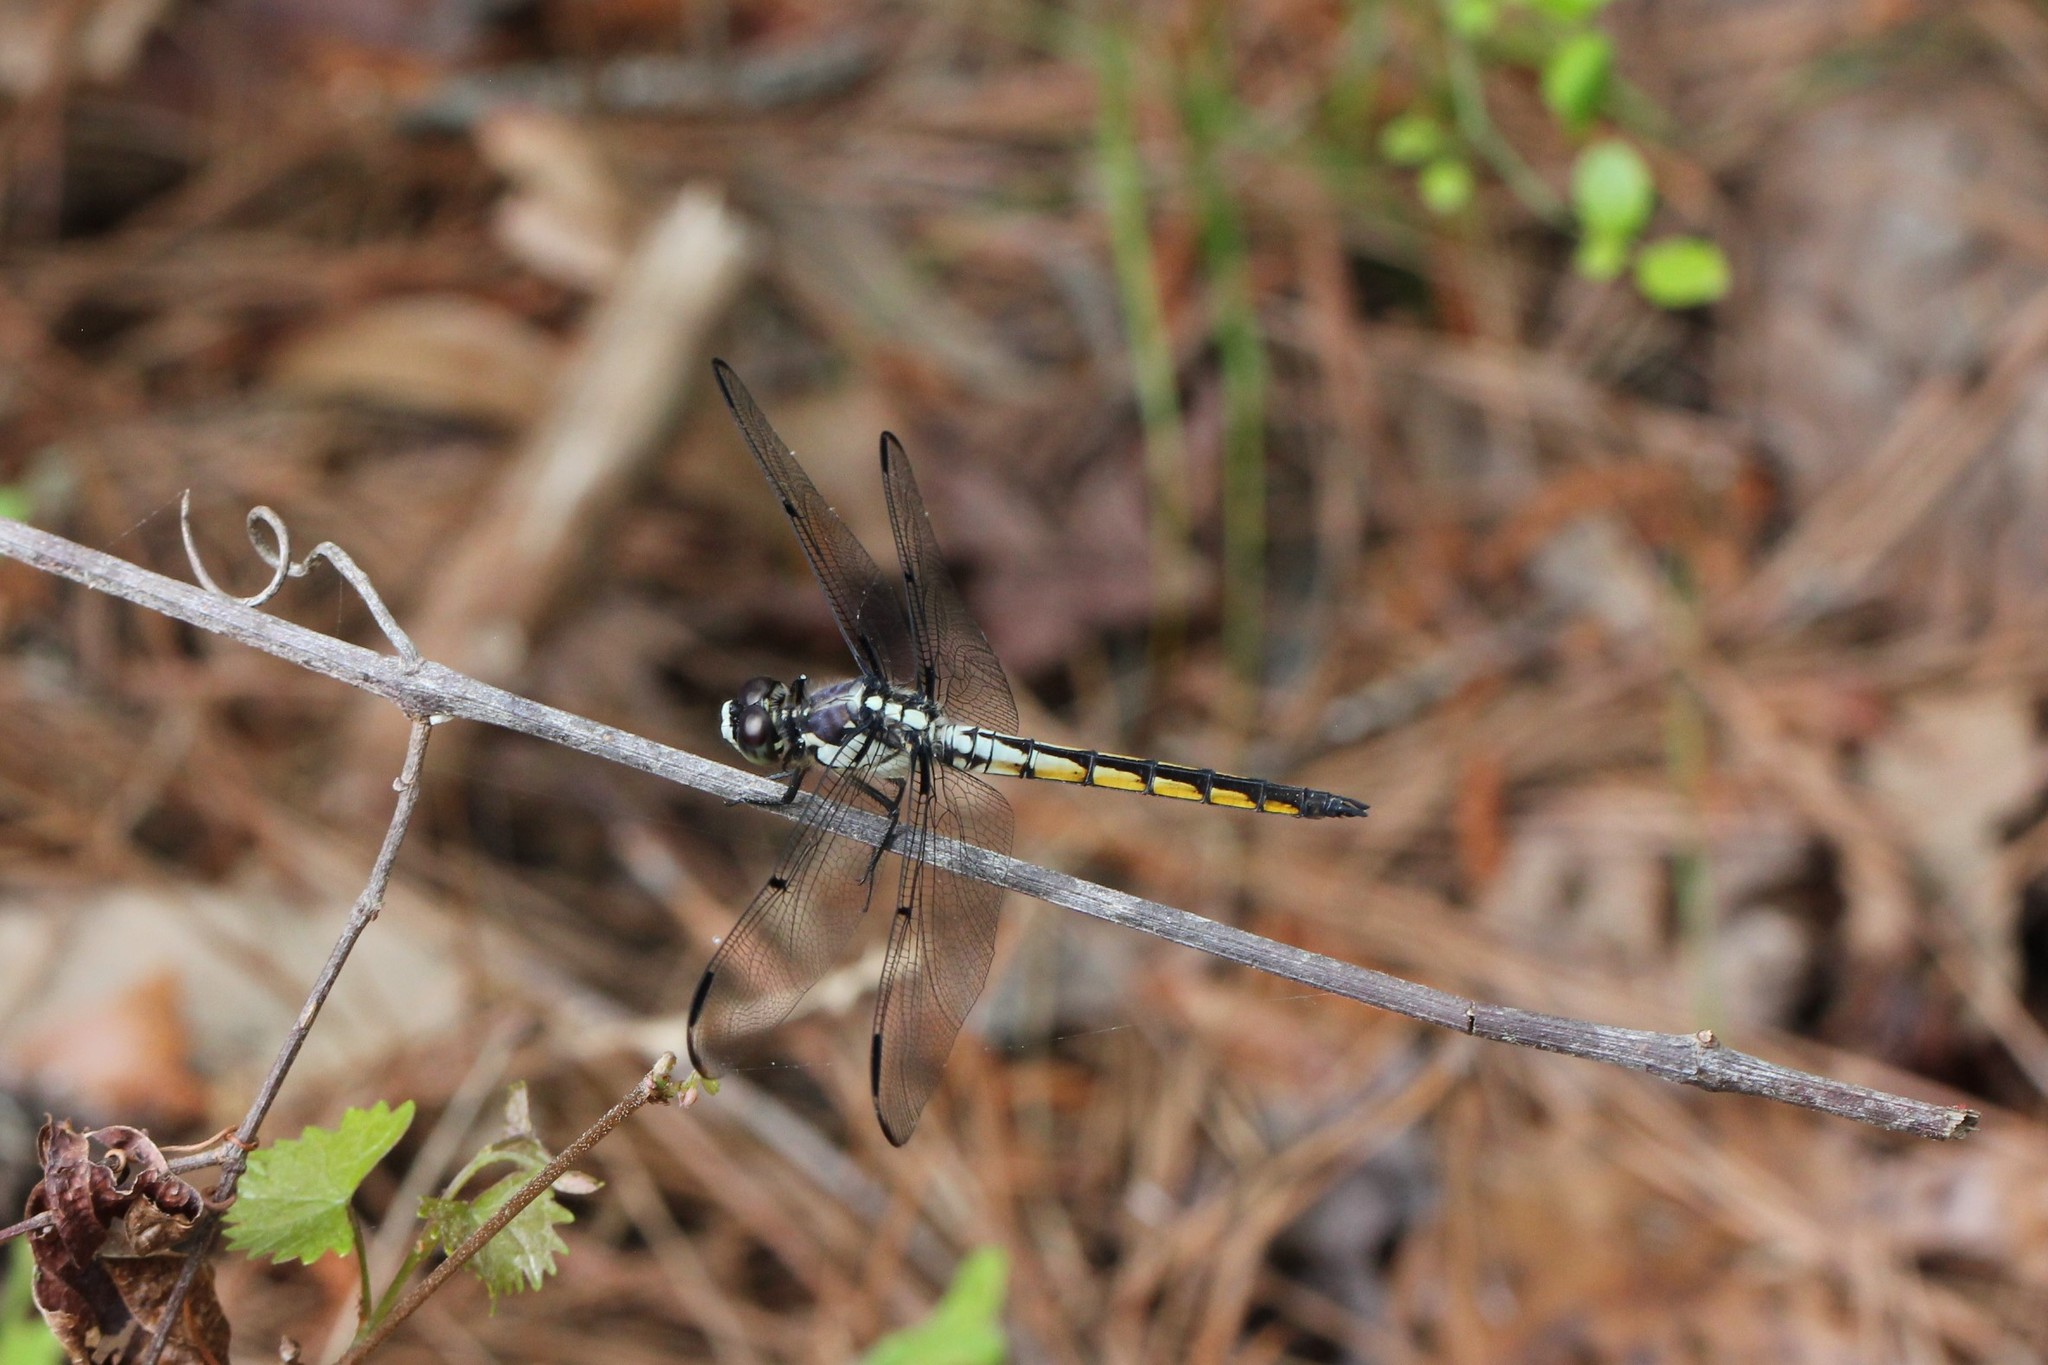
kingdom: Animalia
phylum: Arthropoda
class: Insecta
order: Odonata
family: Libellulidae
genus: Libellula
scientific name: Libellula vibrans
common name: Great blue skimmer
